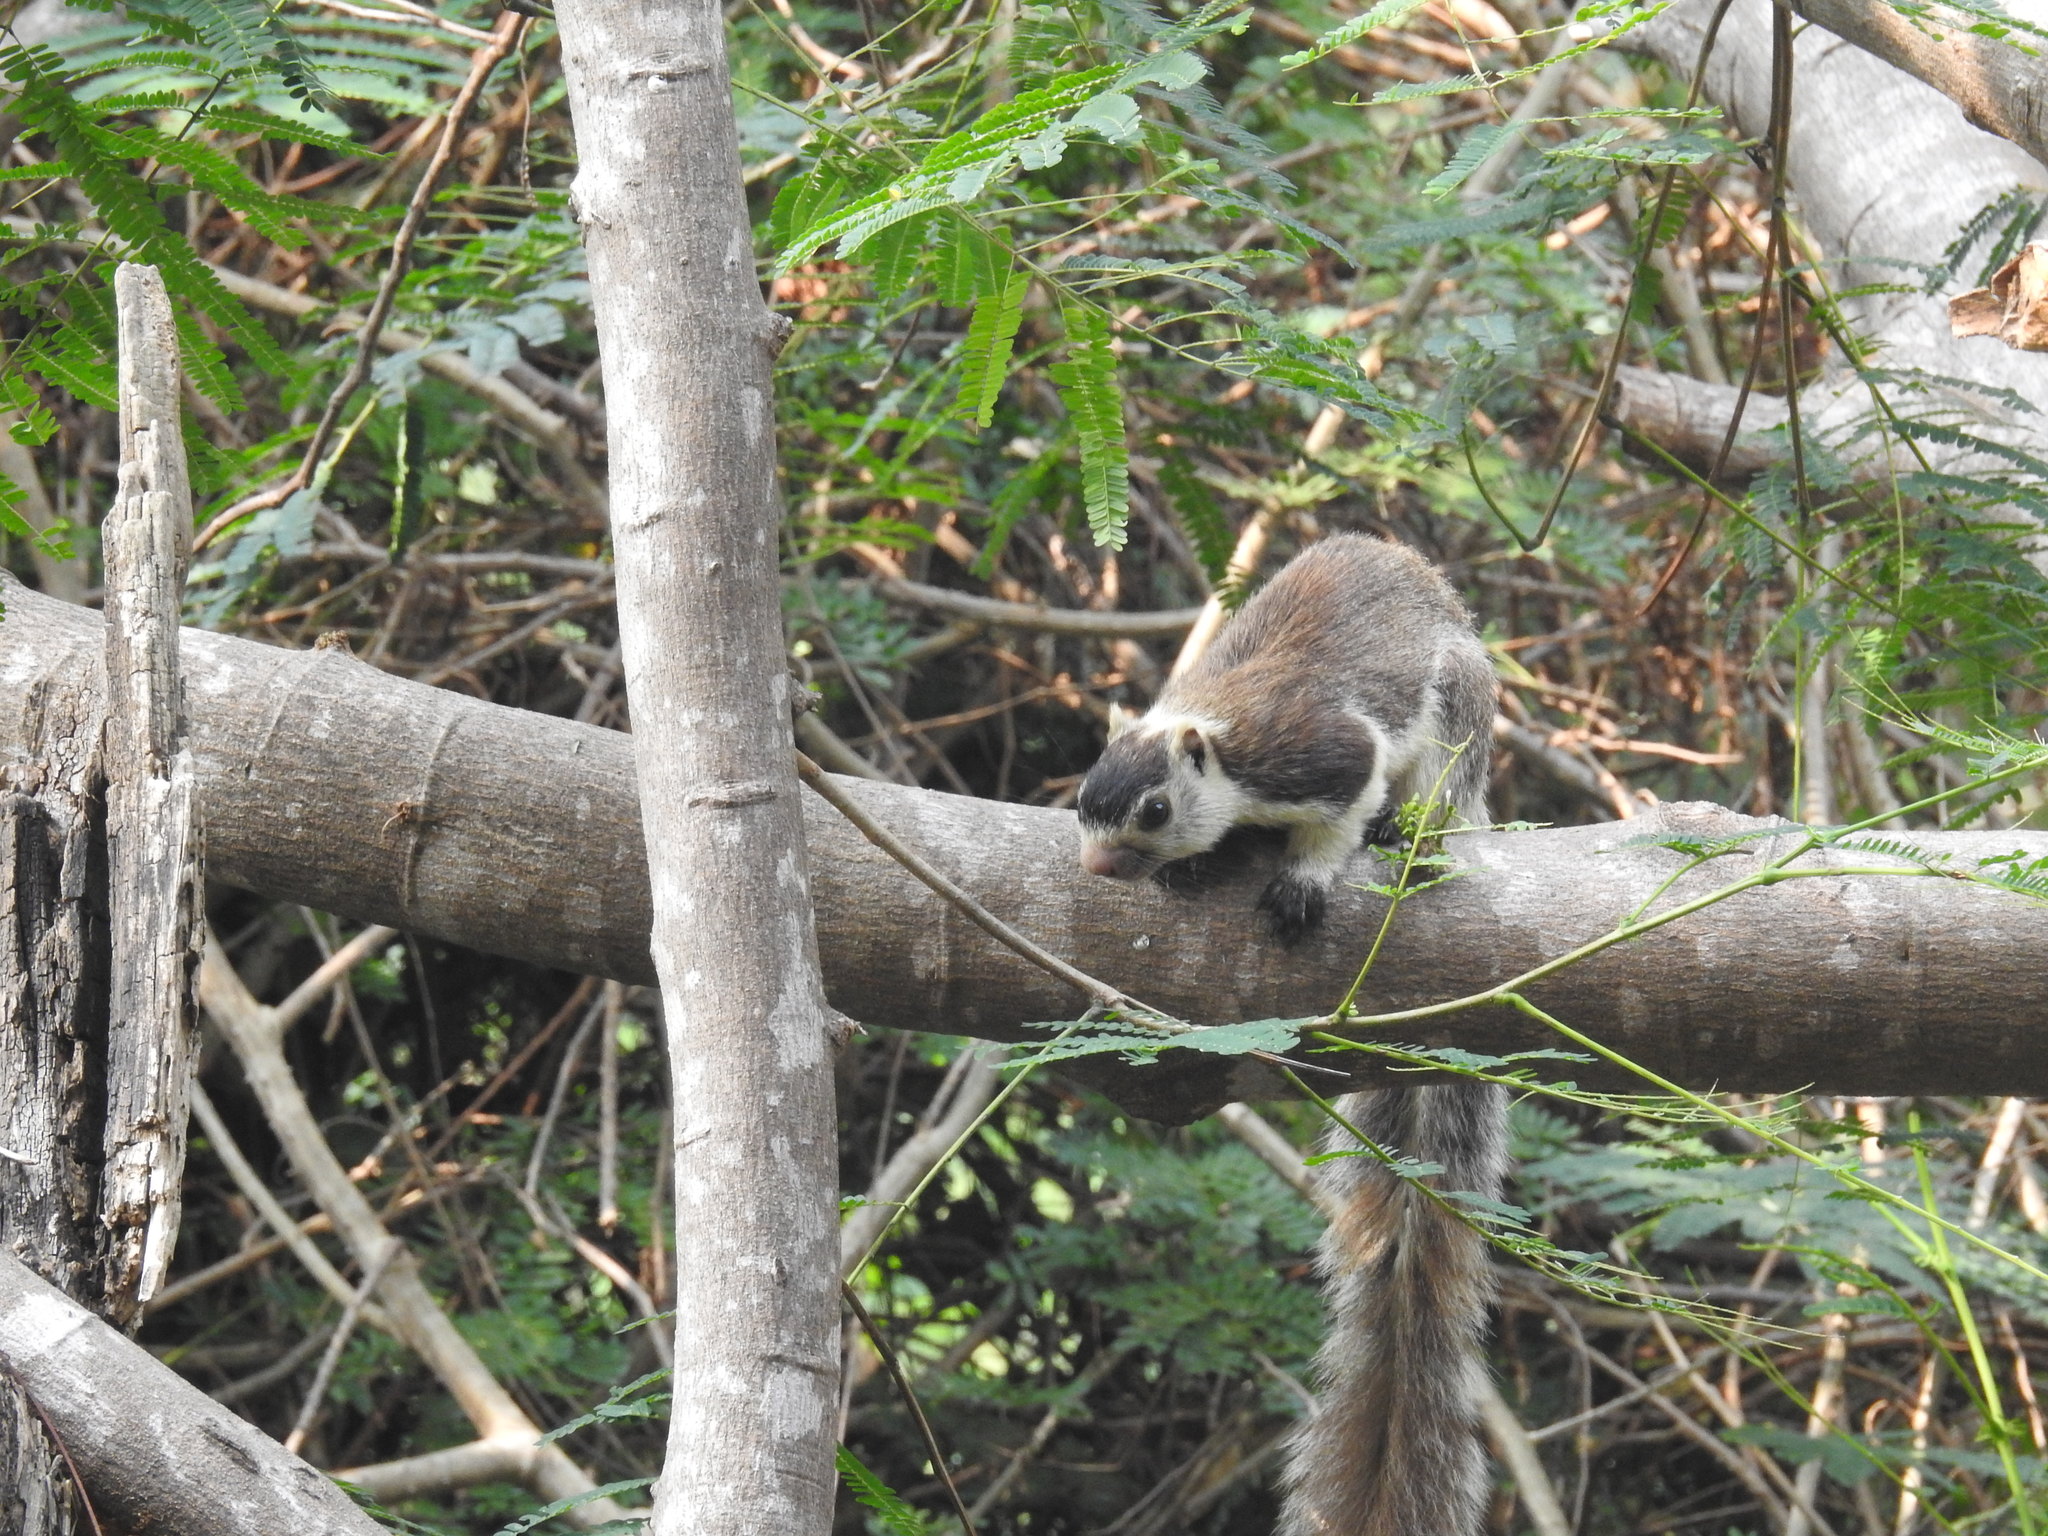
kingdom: Animalia
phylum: Chordata
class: Mammalia
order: Rodentia
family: Sciuridae
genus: Ratufa
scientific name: Ratufa macroura
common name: Sri lankan giant squirrel
